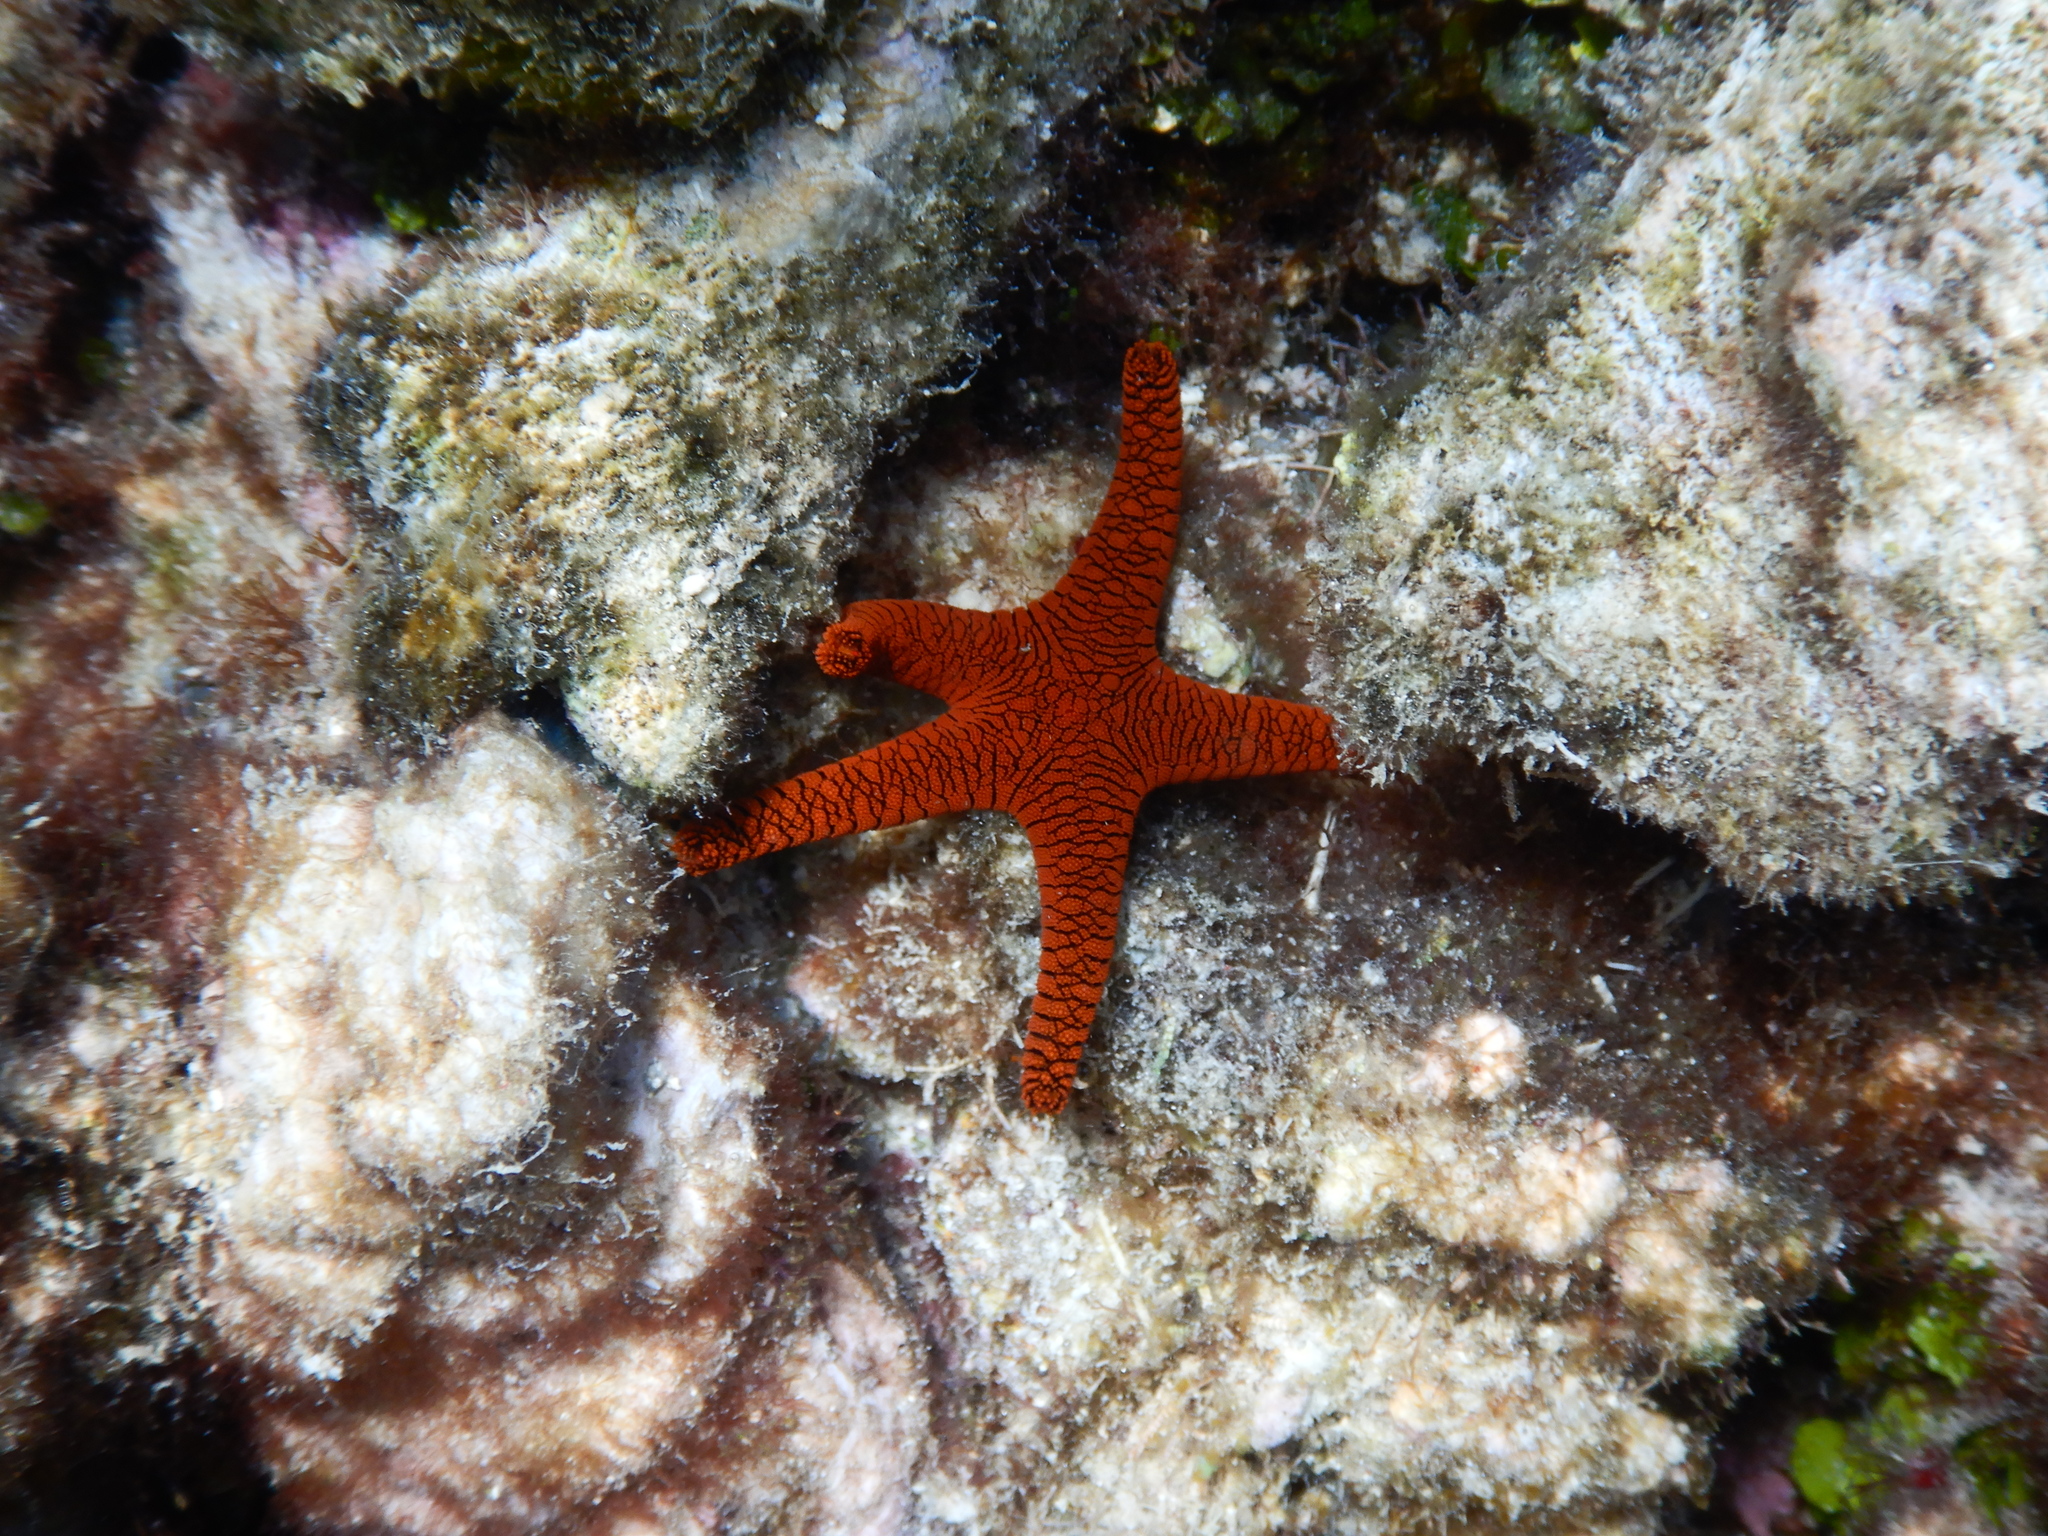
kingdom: Animalia
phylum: Echinodermata
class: Asteroidea
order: Valvatida
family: Goniasteridae
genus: Fromia
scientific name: Fromia indica
